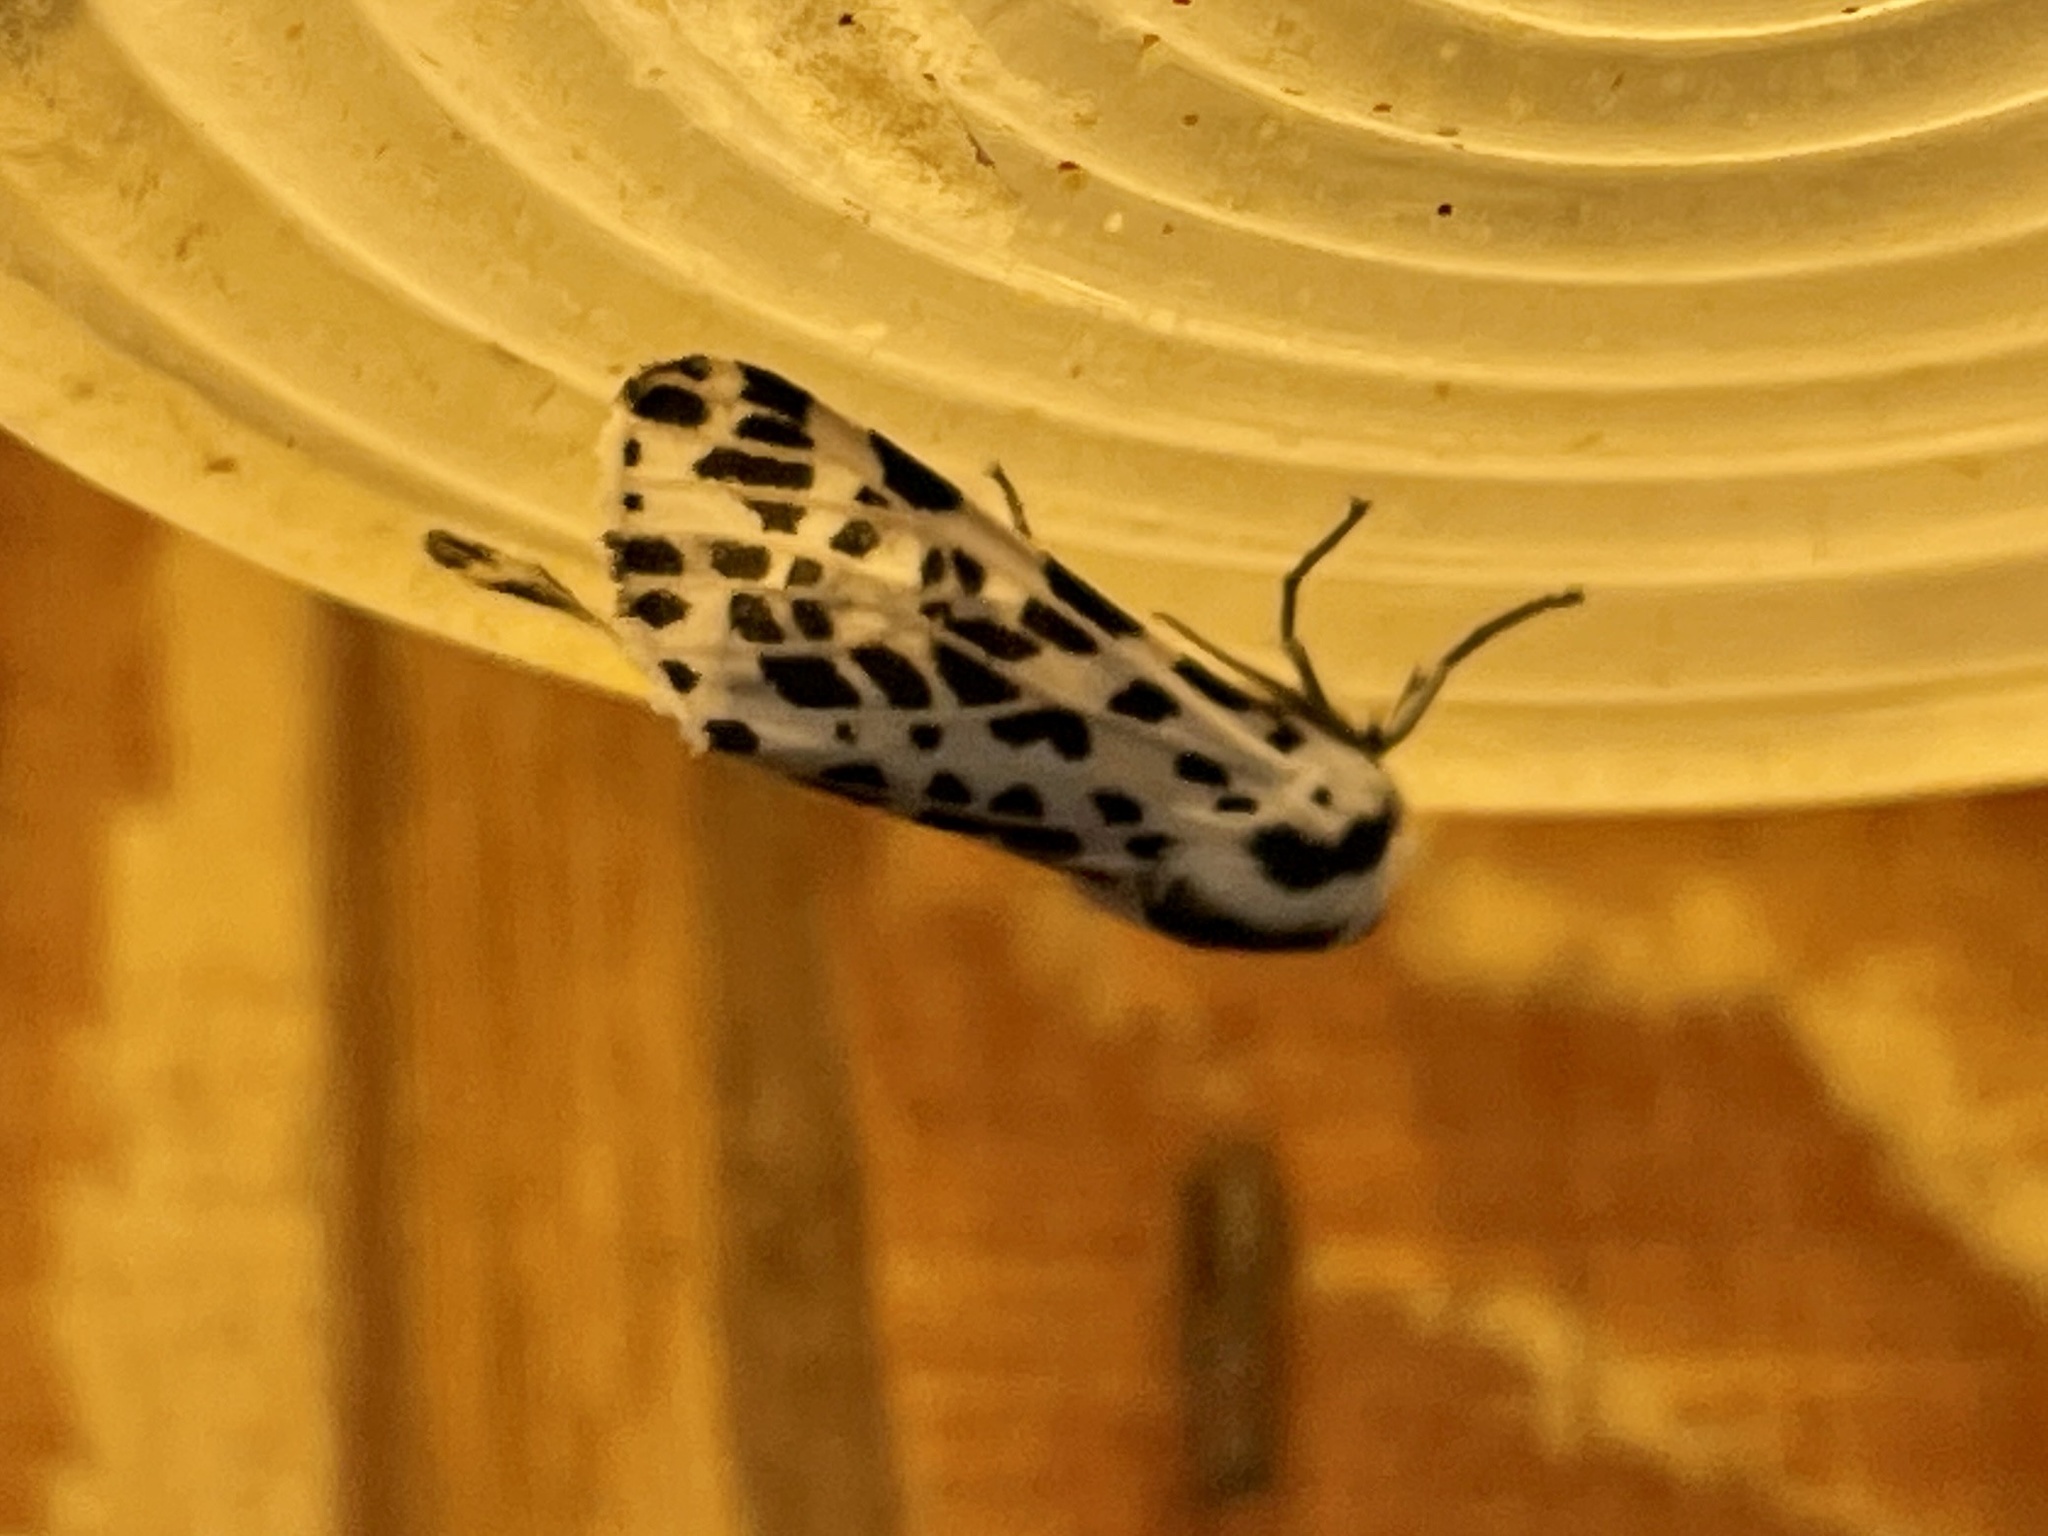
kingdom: Animalia
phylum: Arthropoda
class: Insecta
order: Lepidoptera
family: Erebidae
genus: Hypercompe
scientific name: Hypercompe permaculata
